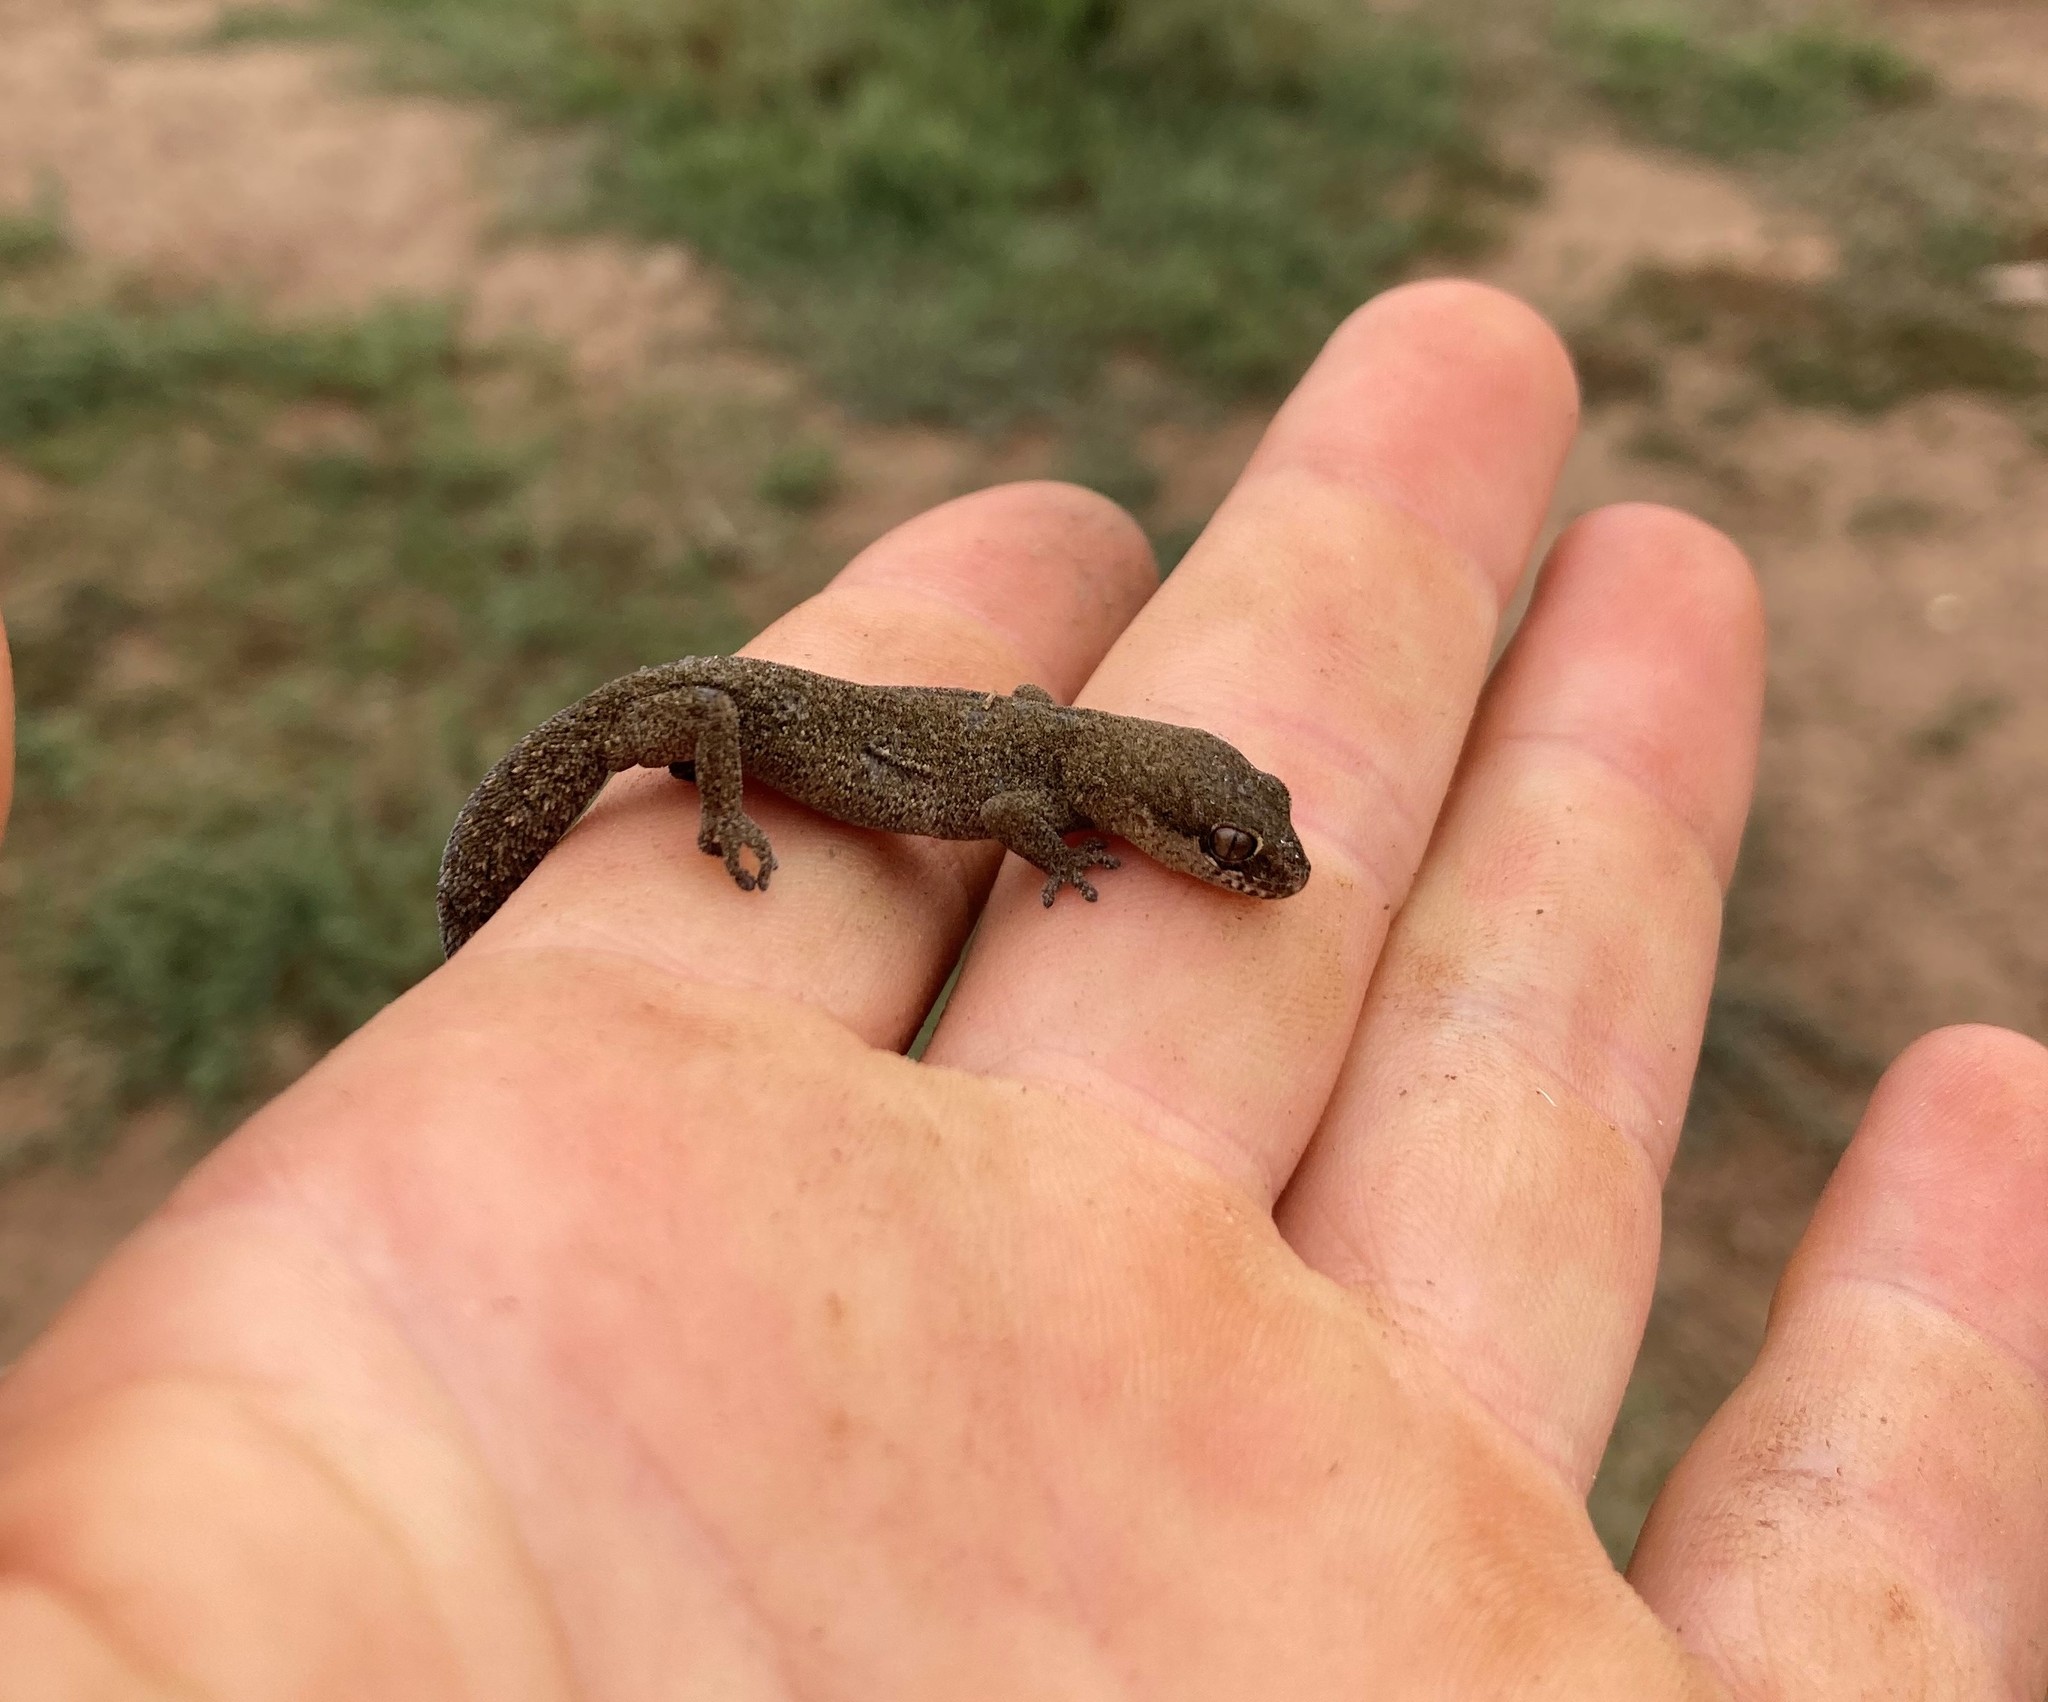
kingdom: Animalia
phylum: Chordata
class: Squamata
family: Gekkonidae
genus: Pachydactylus
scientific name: Pachydactylus geitje
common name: Ocellated thick-toed gecko
